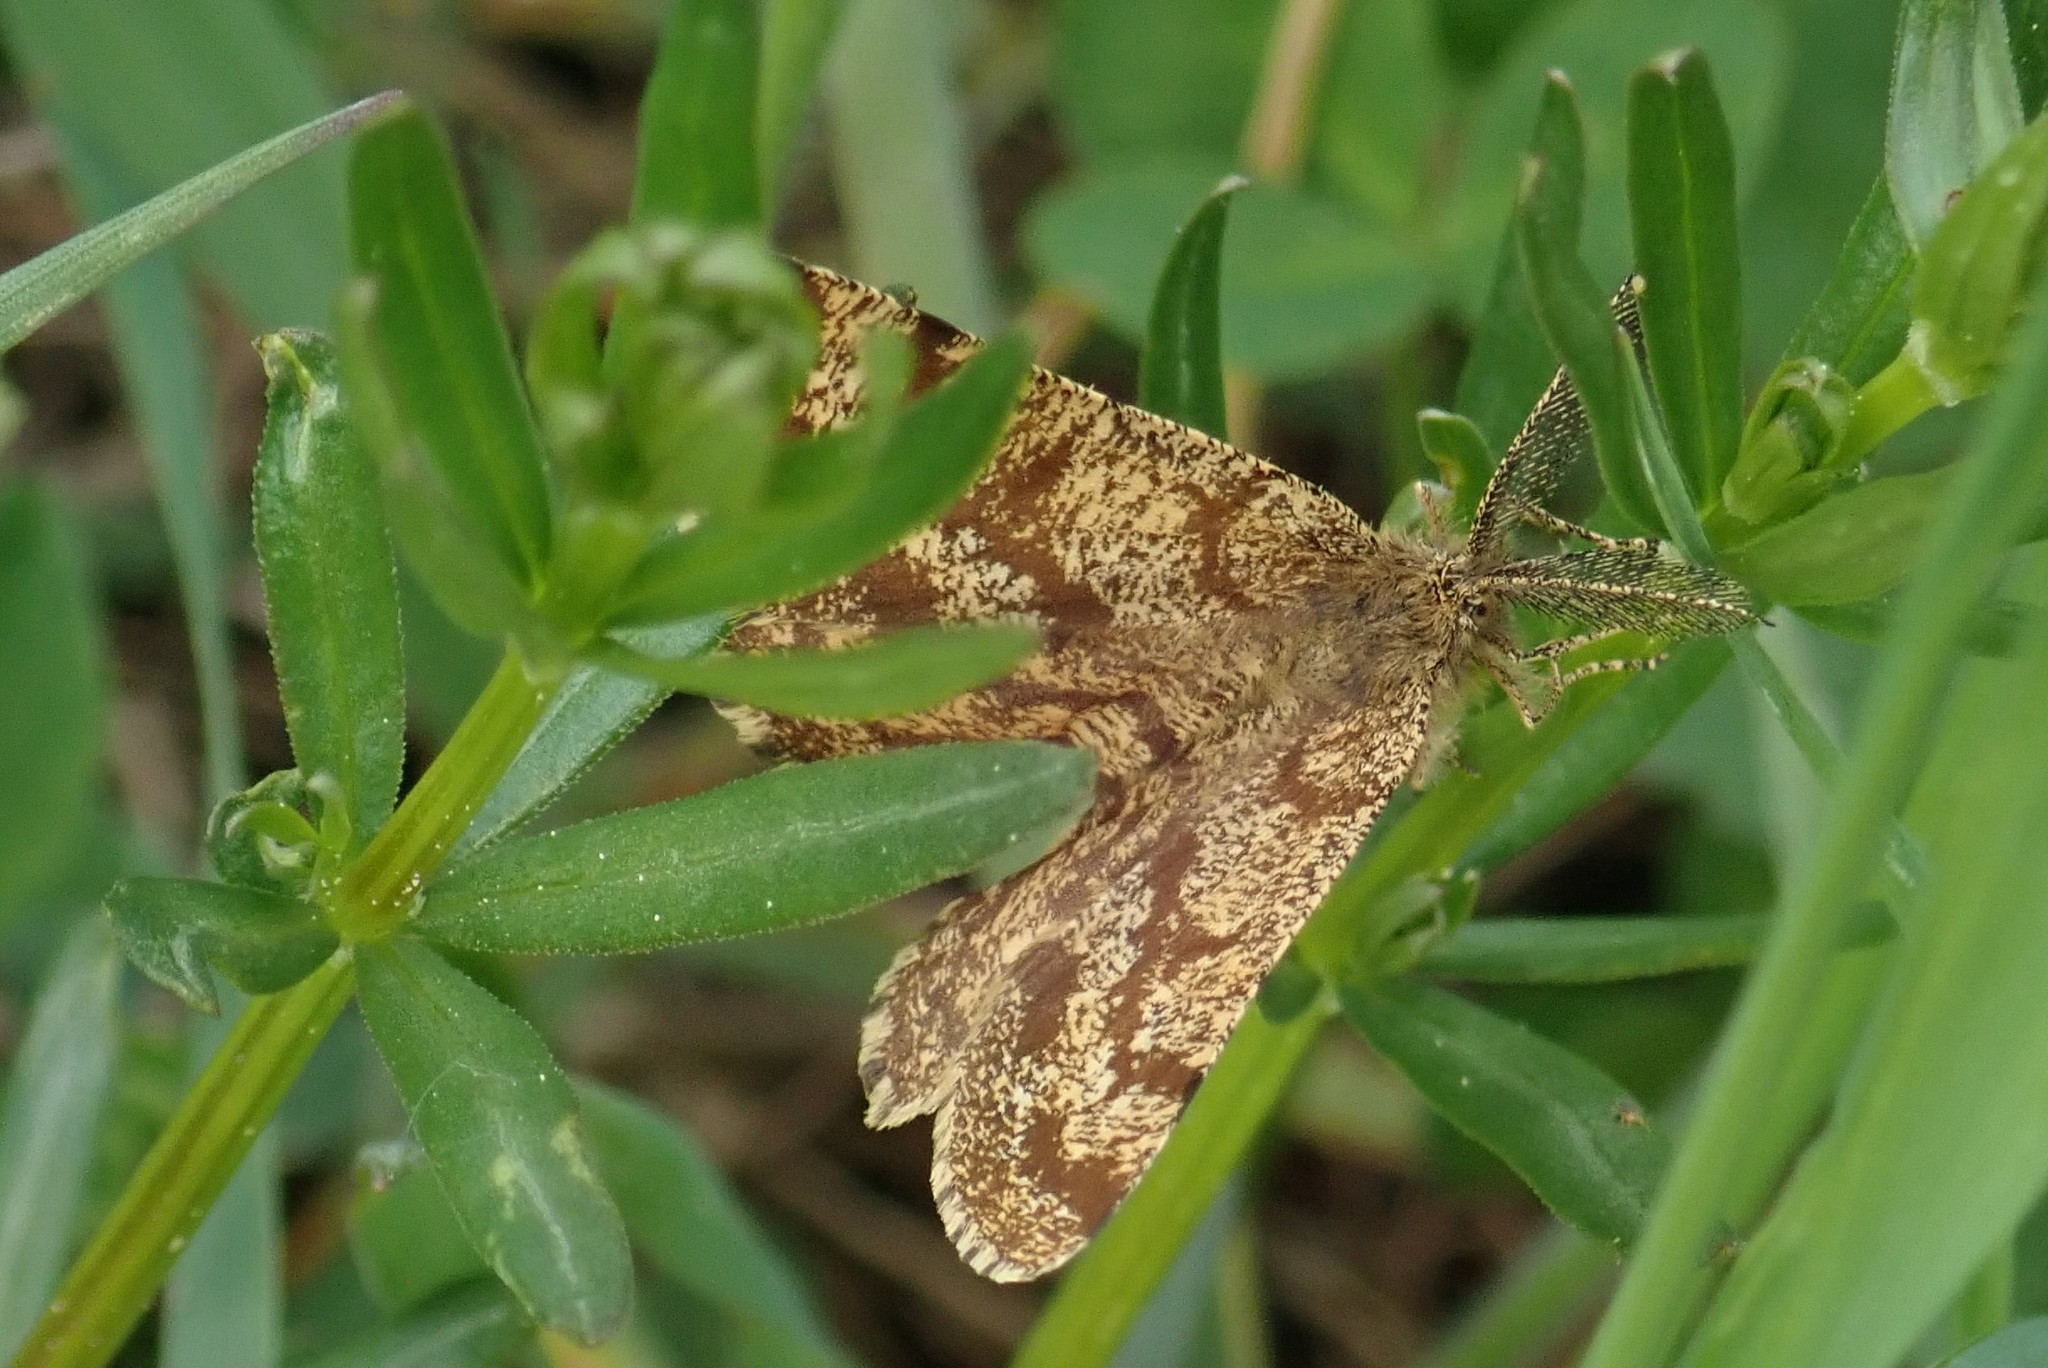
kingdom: Animalia
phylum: Arthropoda
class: Insecta
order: Lepidoptera
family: Geometridae
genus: Ematurga
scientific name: Ematurga atomaria
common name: Common heath
